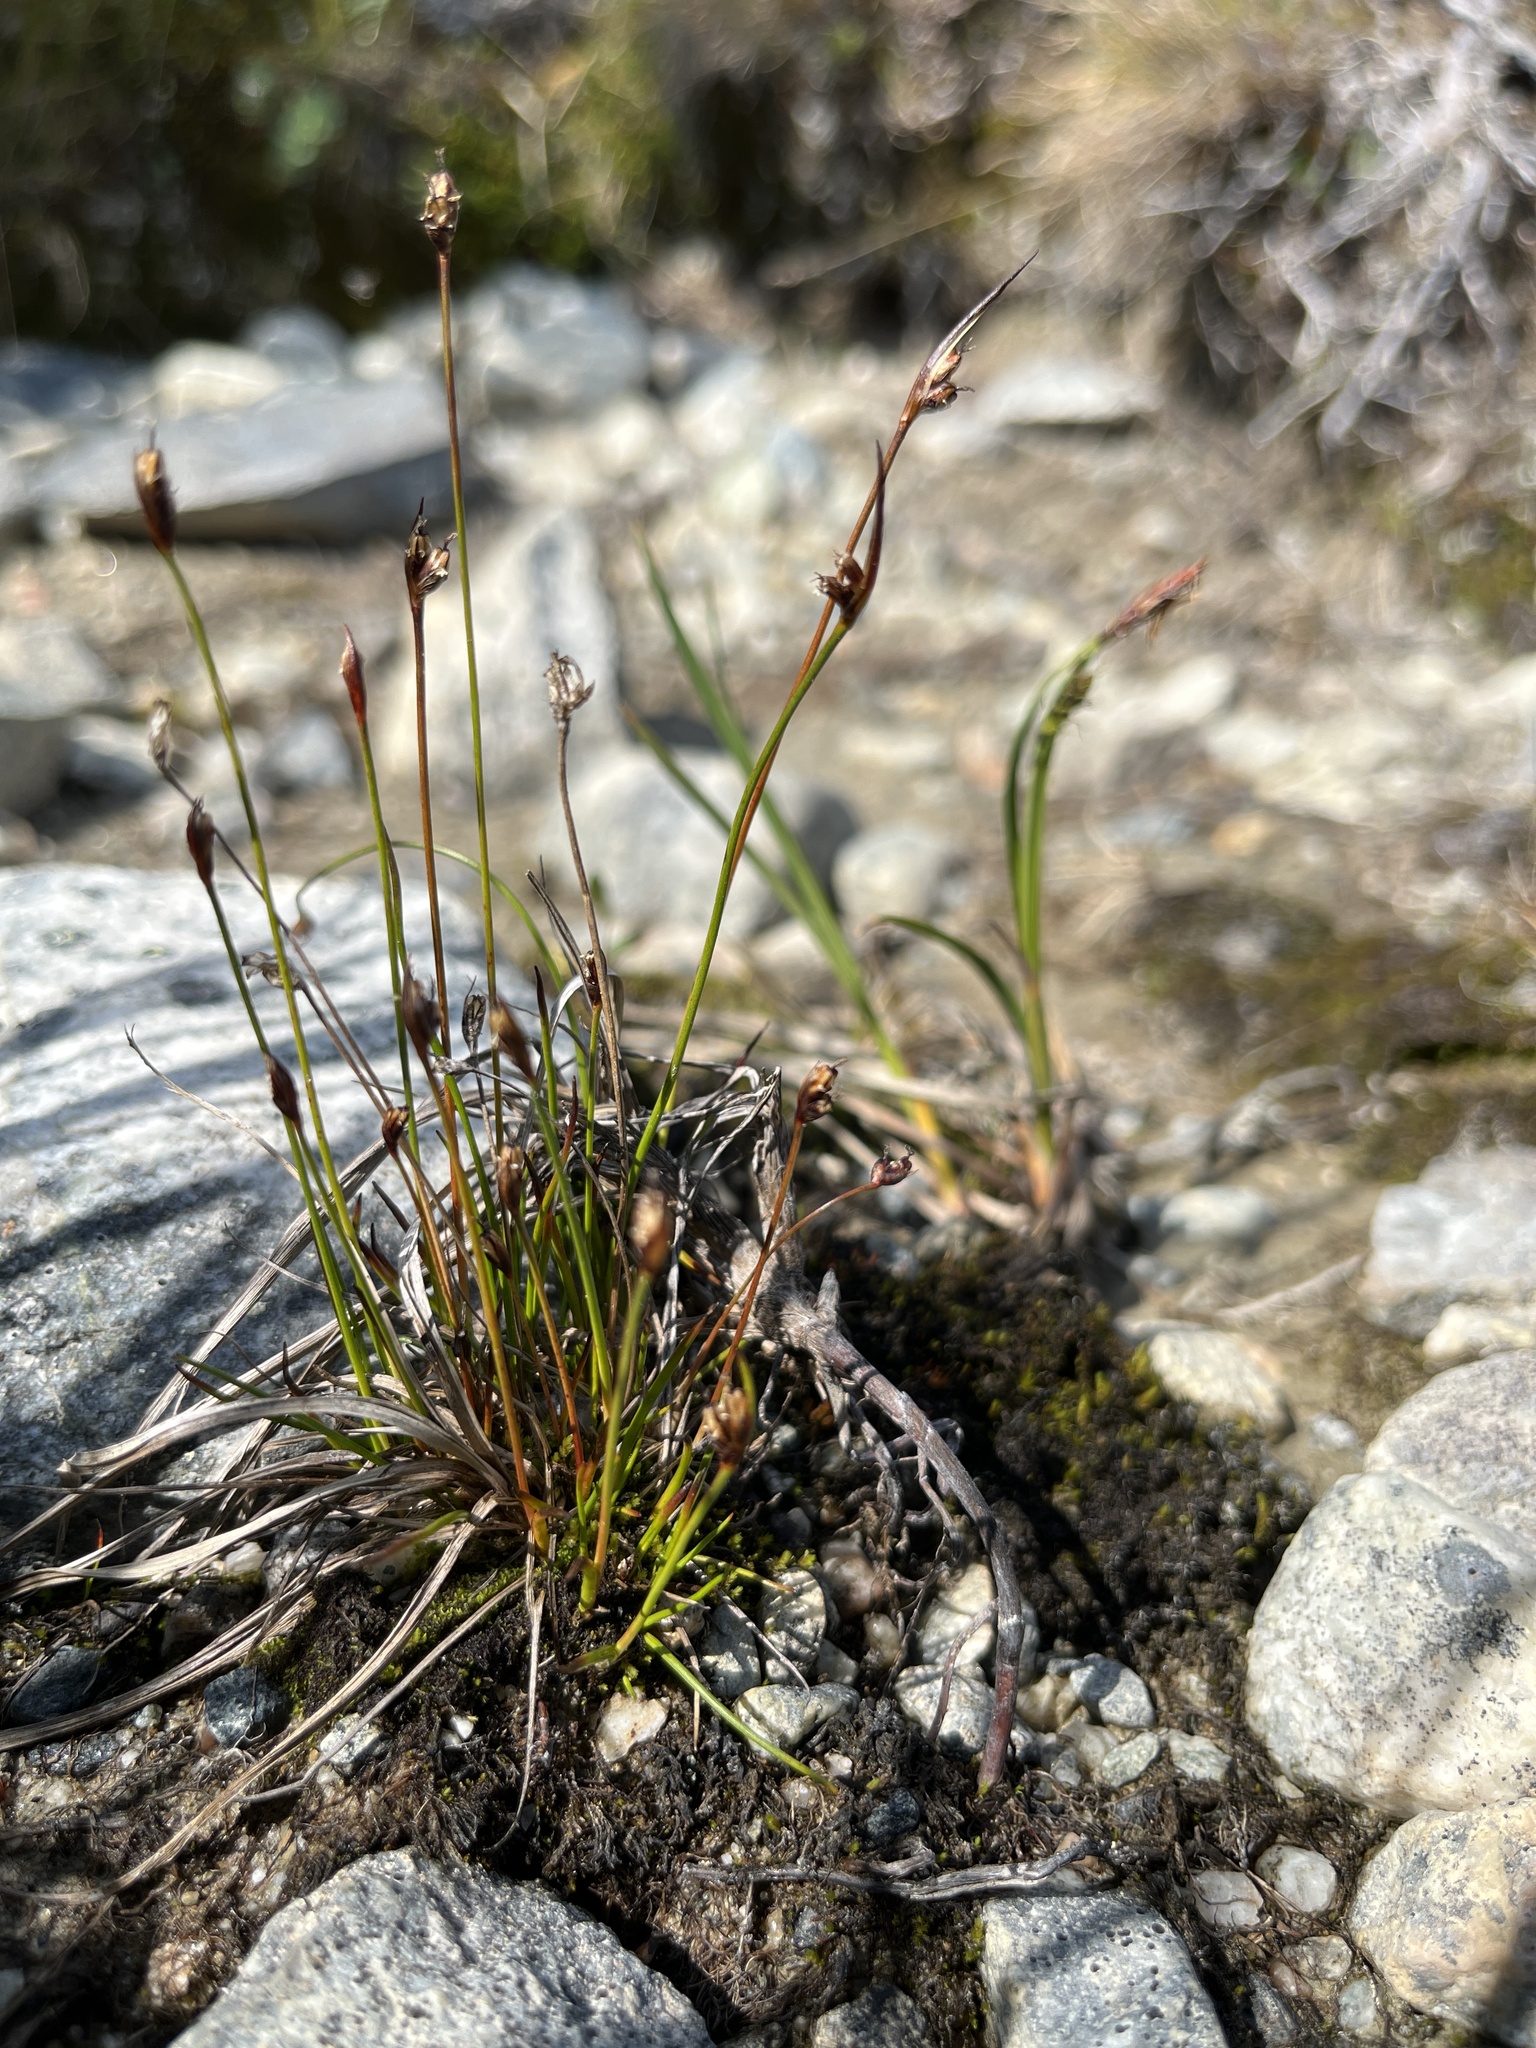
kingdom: Plantae
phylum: Tracheophyta
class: Liliopsida
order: Poales
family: Juncaceae
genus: Juncus
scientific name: Juncus biglumis
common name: Two-flowered rush
